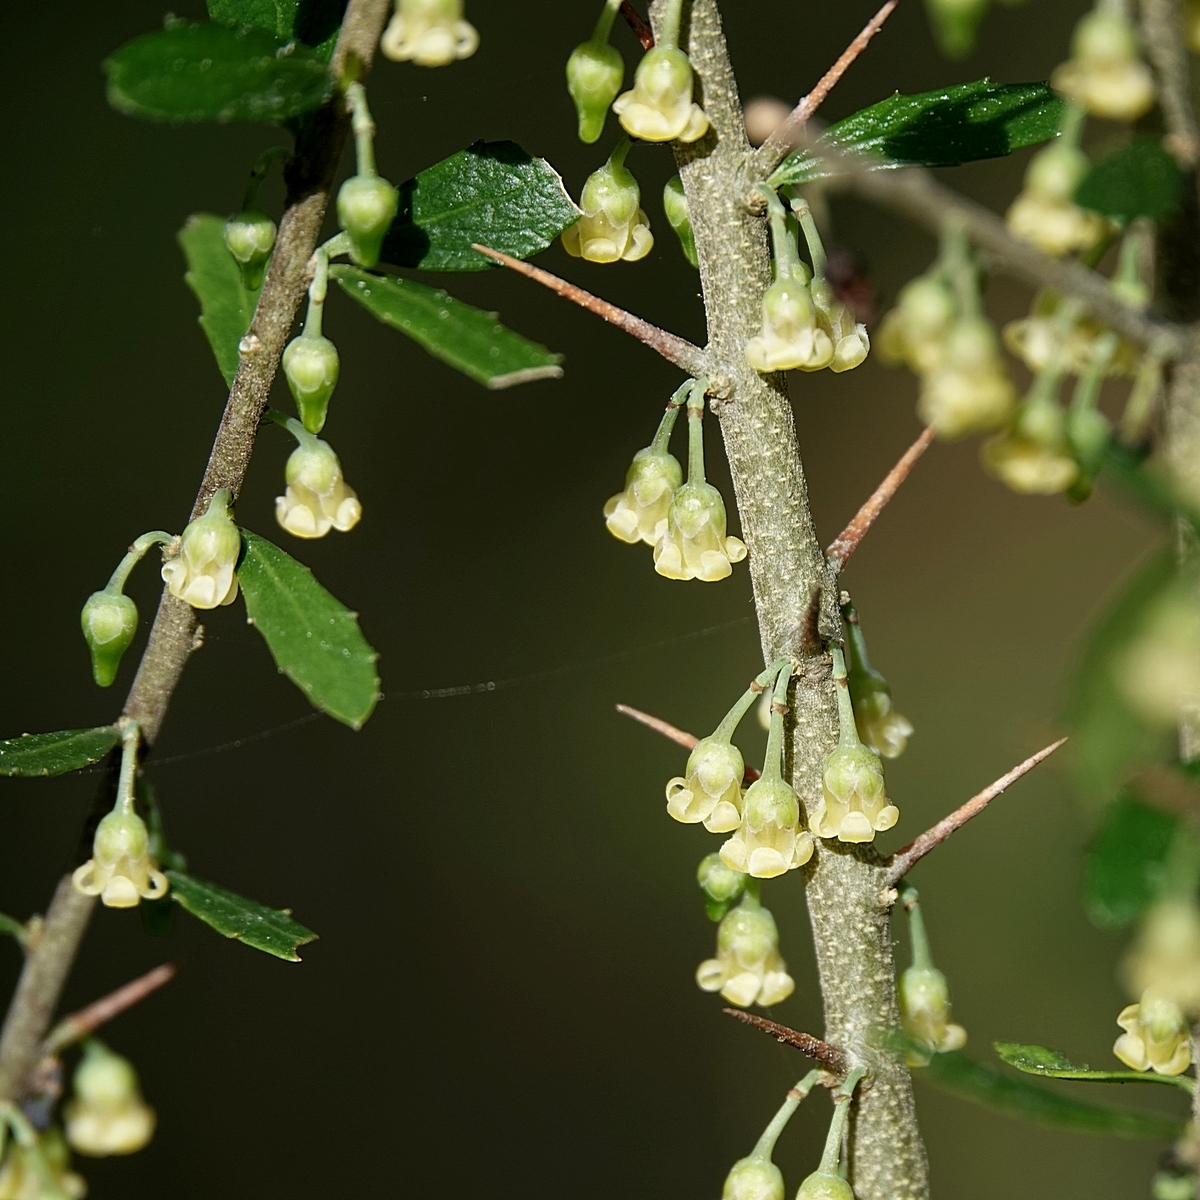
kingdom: Plantae
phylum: Tracheophyta
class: Magnoliopsida
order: Malpighiales
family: Violaceae
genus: Melicytus
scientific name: Melicytus dentatus
